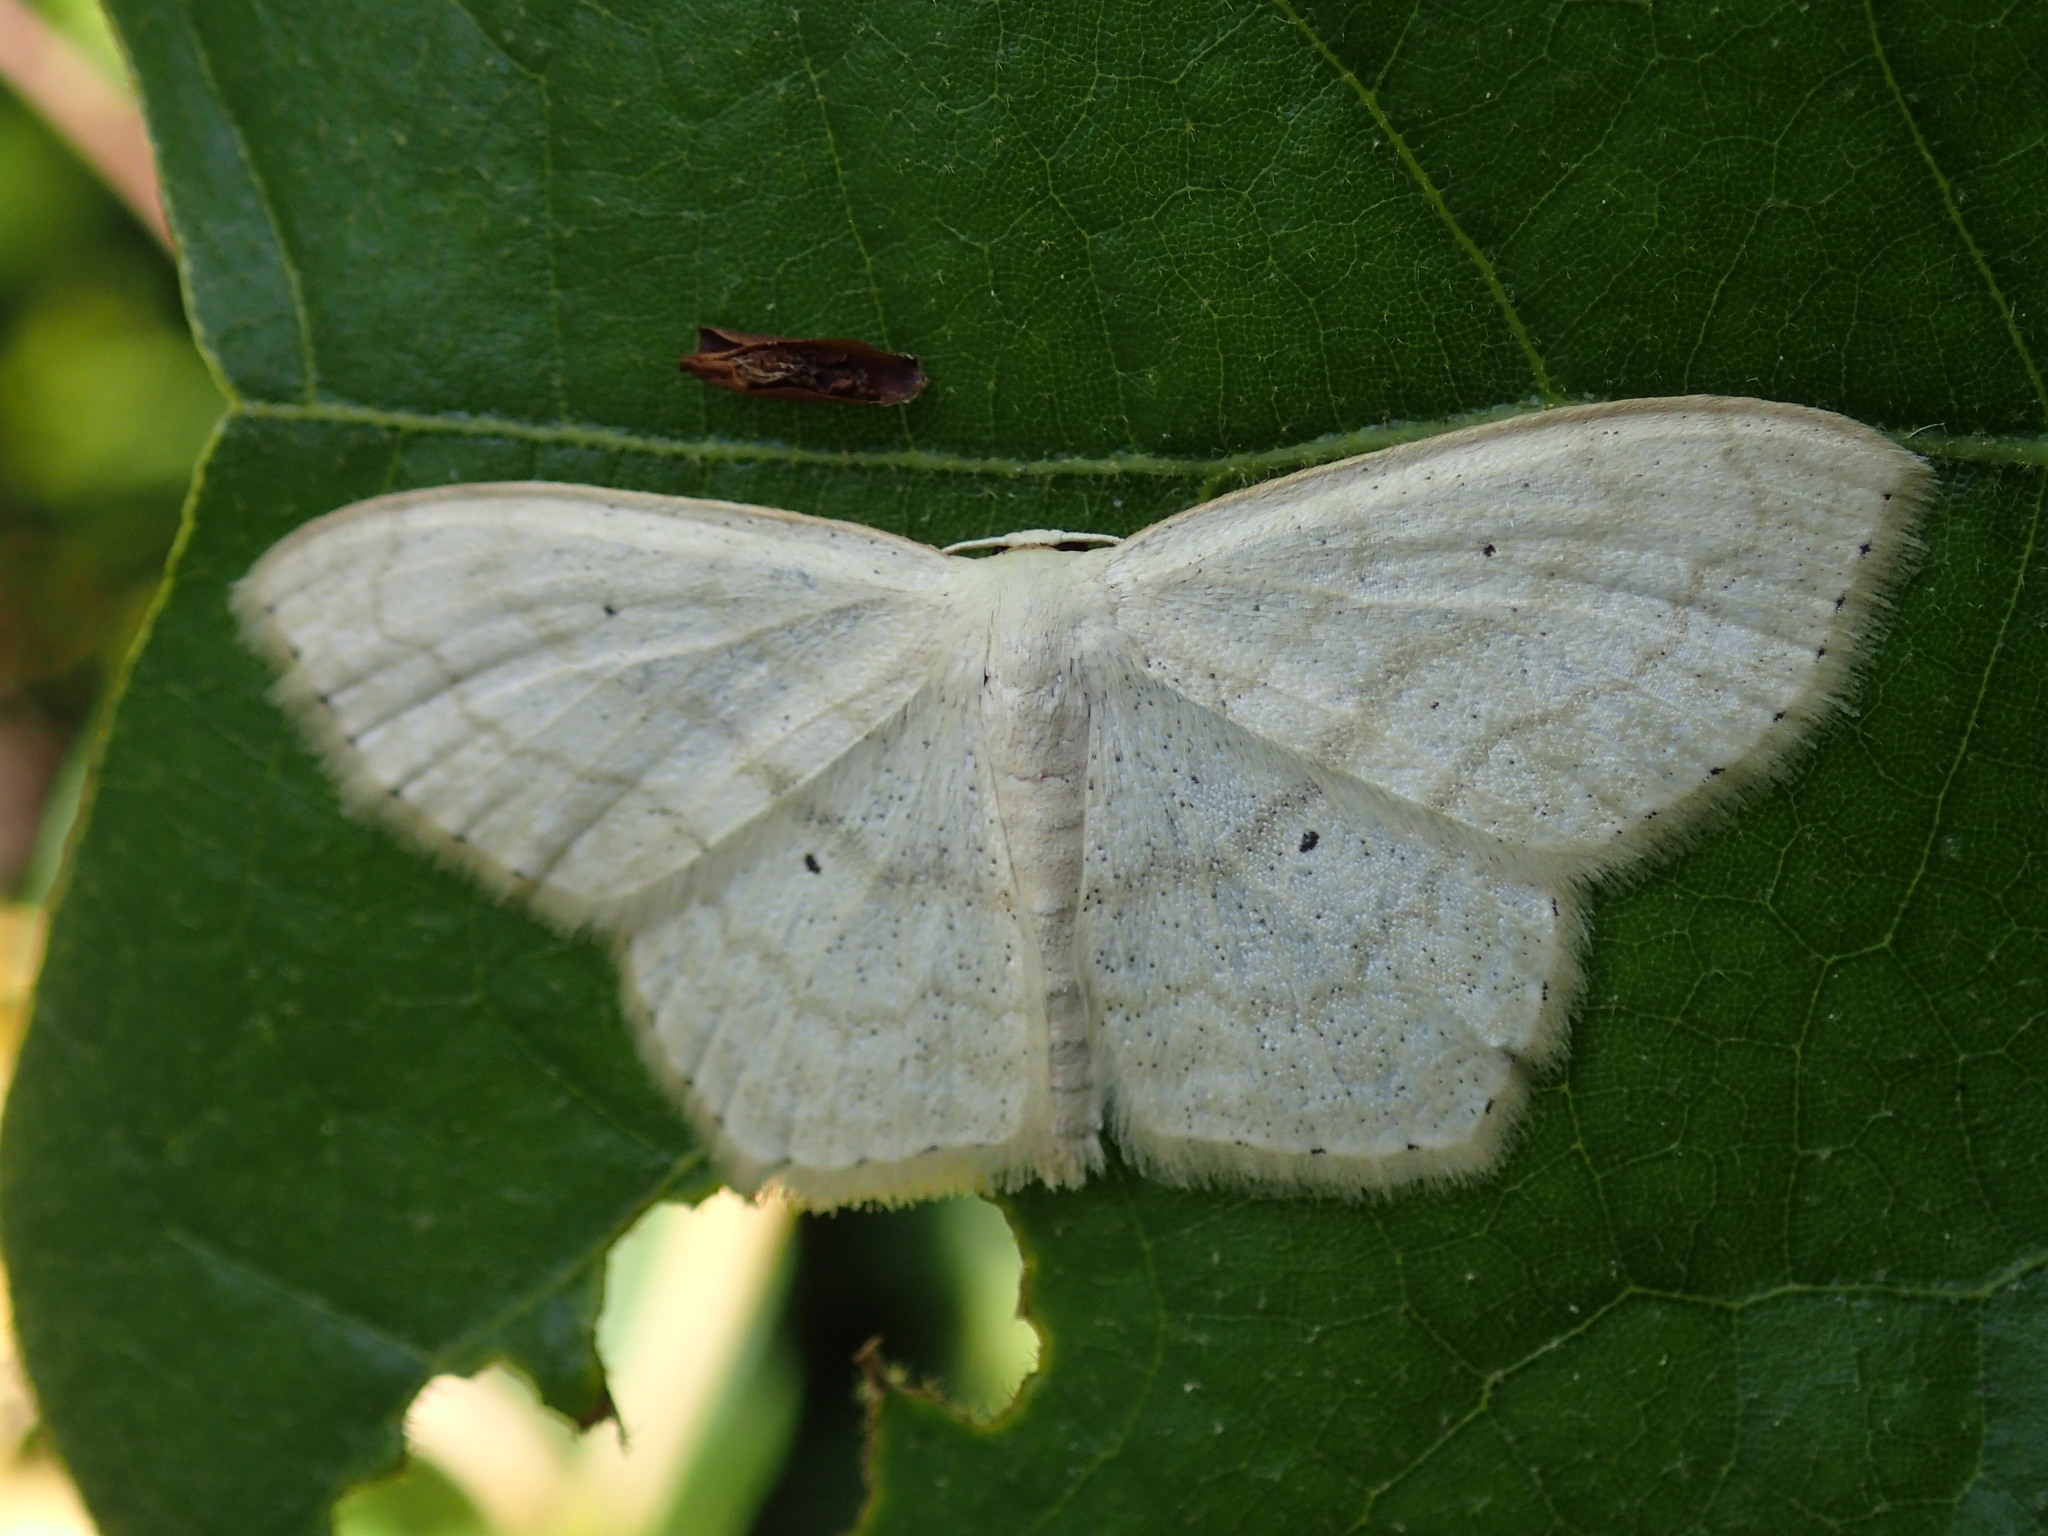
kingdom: Animalia
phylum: Arthropoda
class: Insecta
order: Lepidoptera
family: Geometridae
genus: Scopula
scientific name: Scopula limboundata
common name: Large lace border
